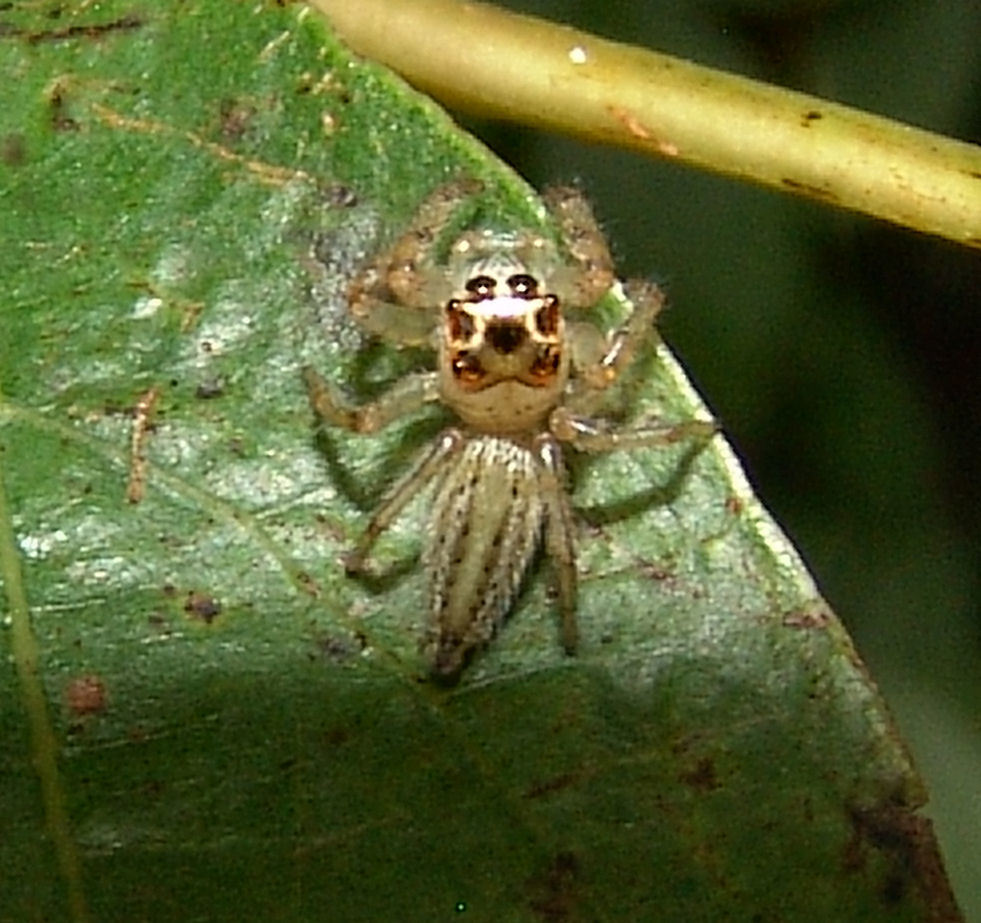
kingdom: Animalia
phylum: Arthropoda
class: Arachnida
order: Araneae
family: Salticidae
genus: Colonus
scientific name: Colonus sylvanus
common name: Jumping spiders
